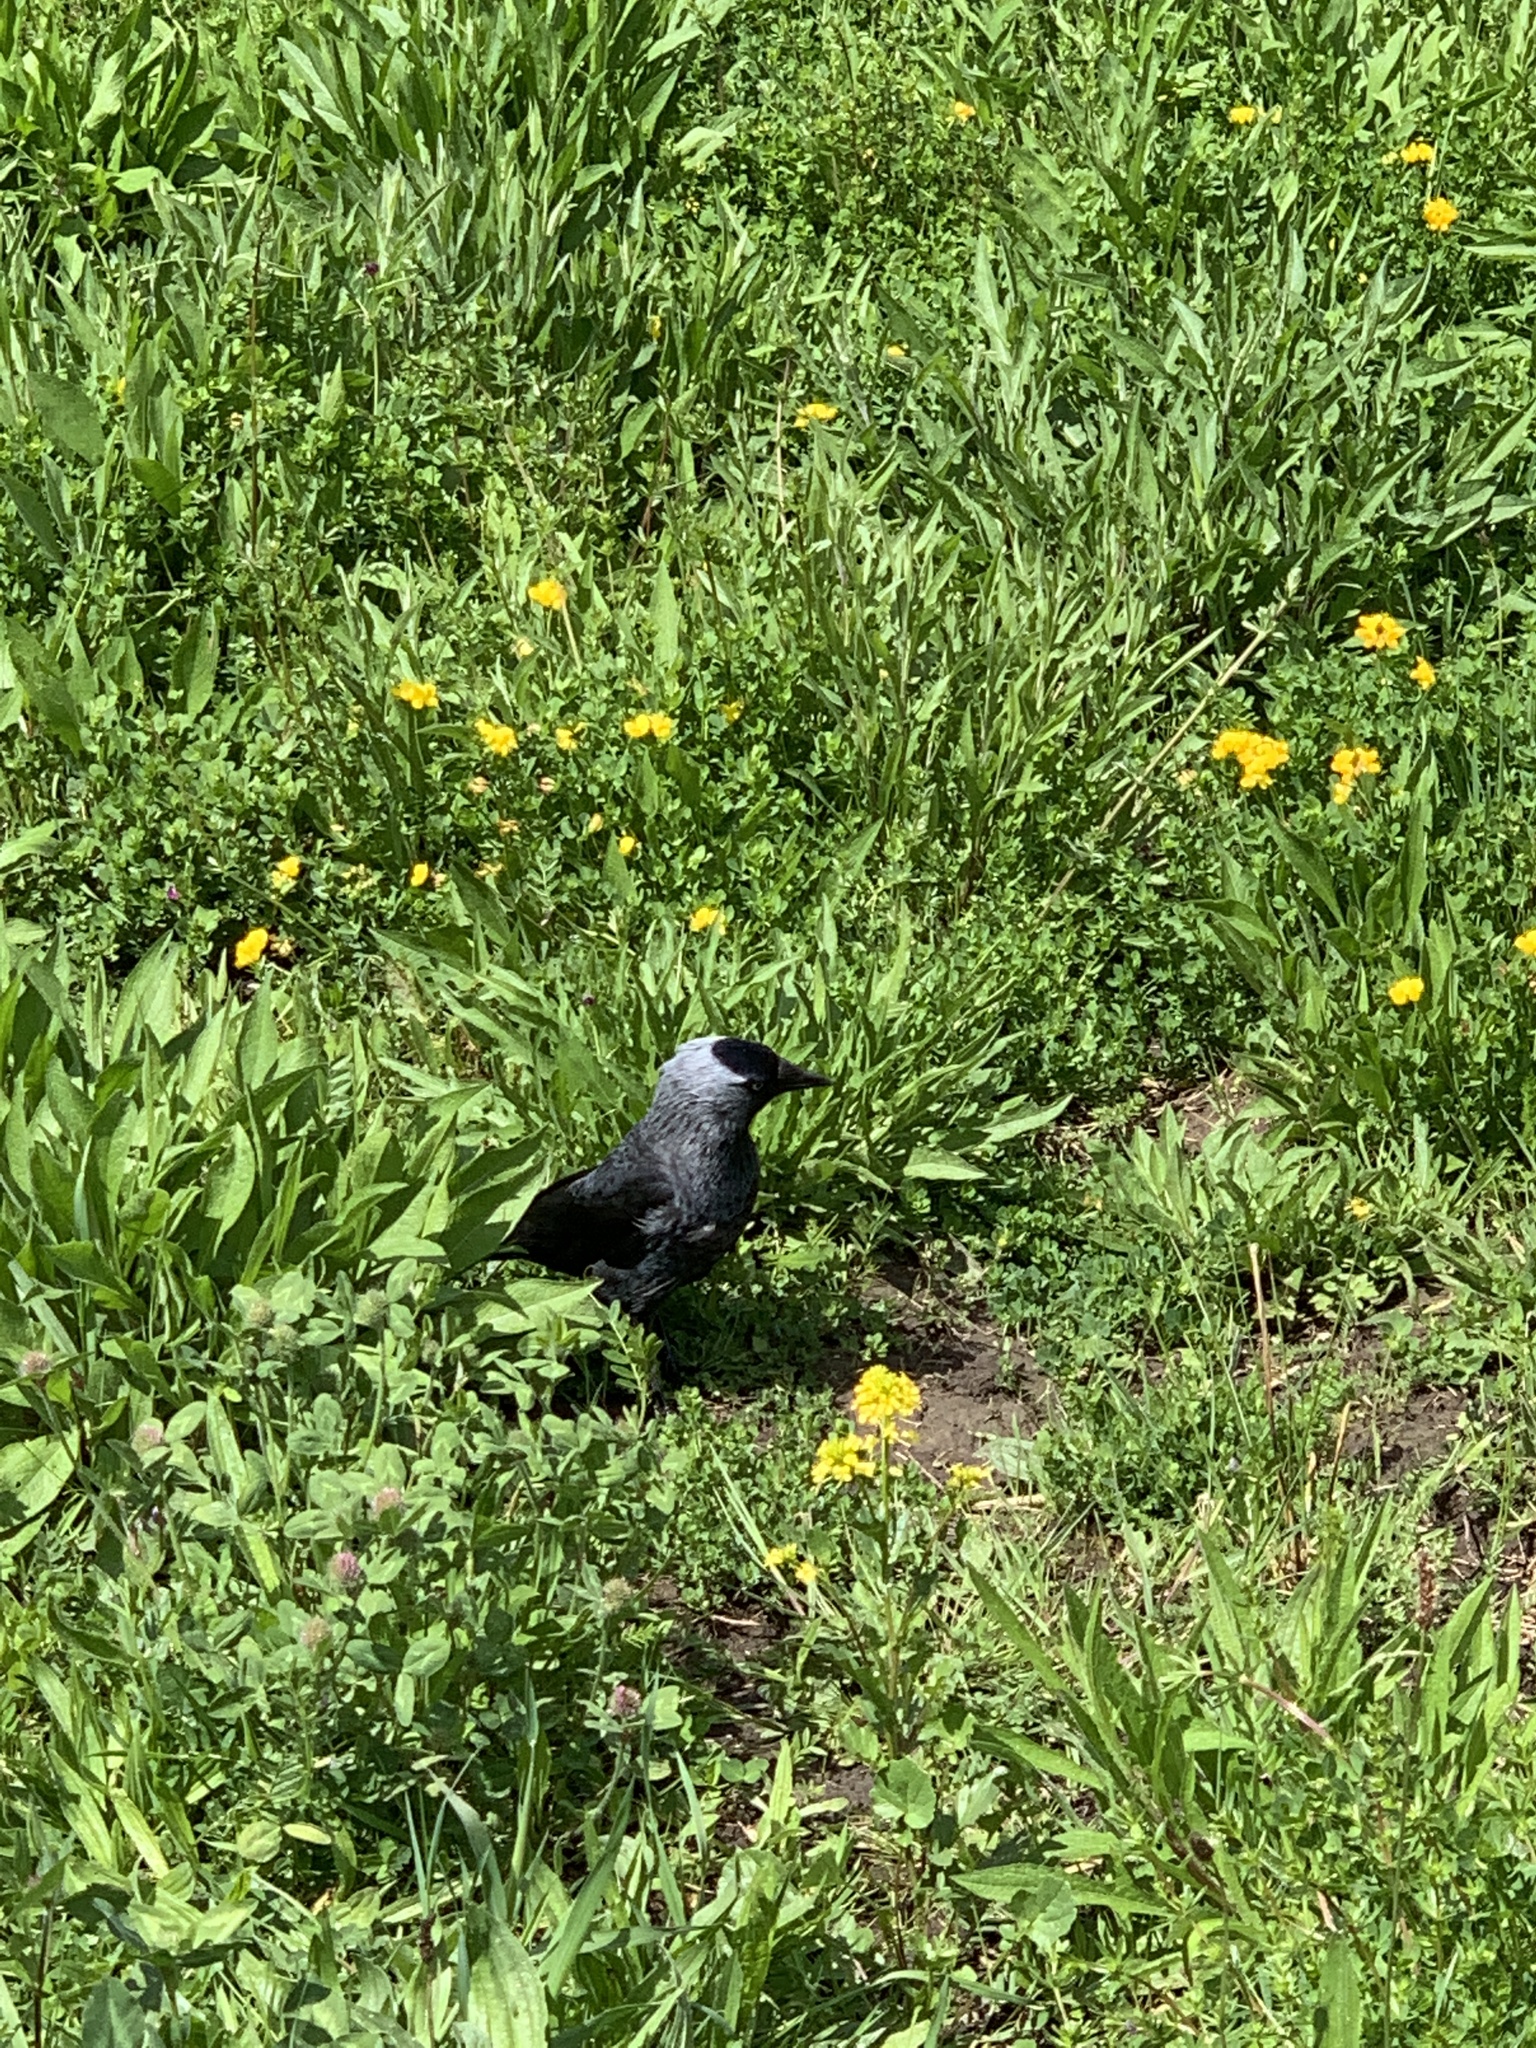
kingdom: Animalia
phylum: Chordata
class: Aves
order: Passeriformes
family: Corvidae
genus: Coloeus
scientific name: Coloeus monedula
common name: Western jackdaw
